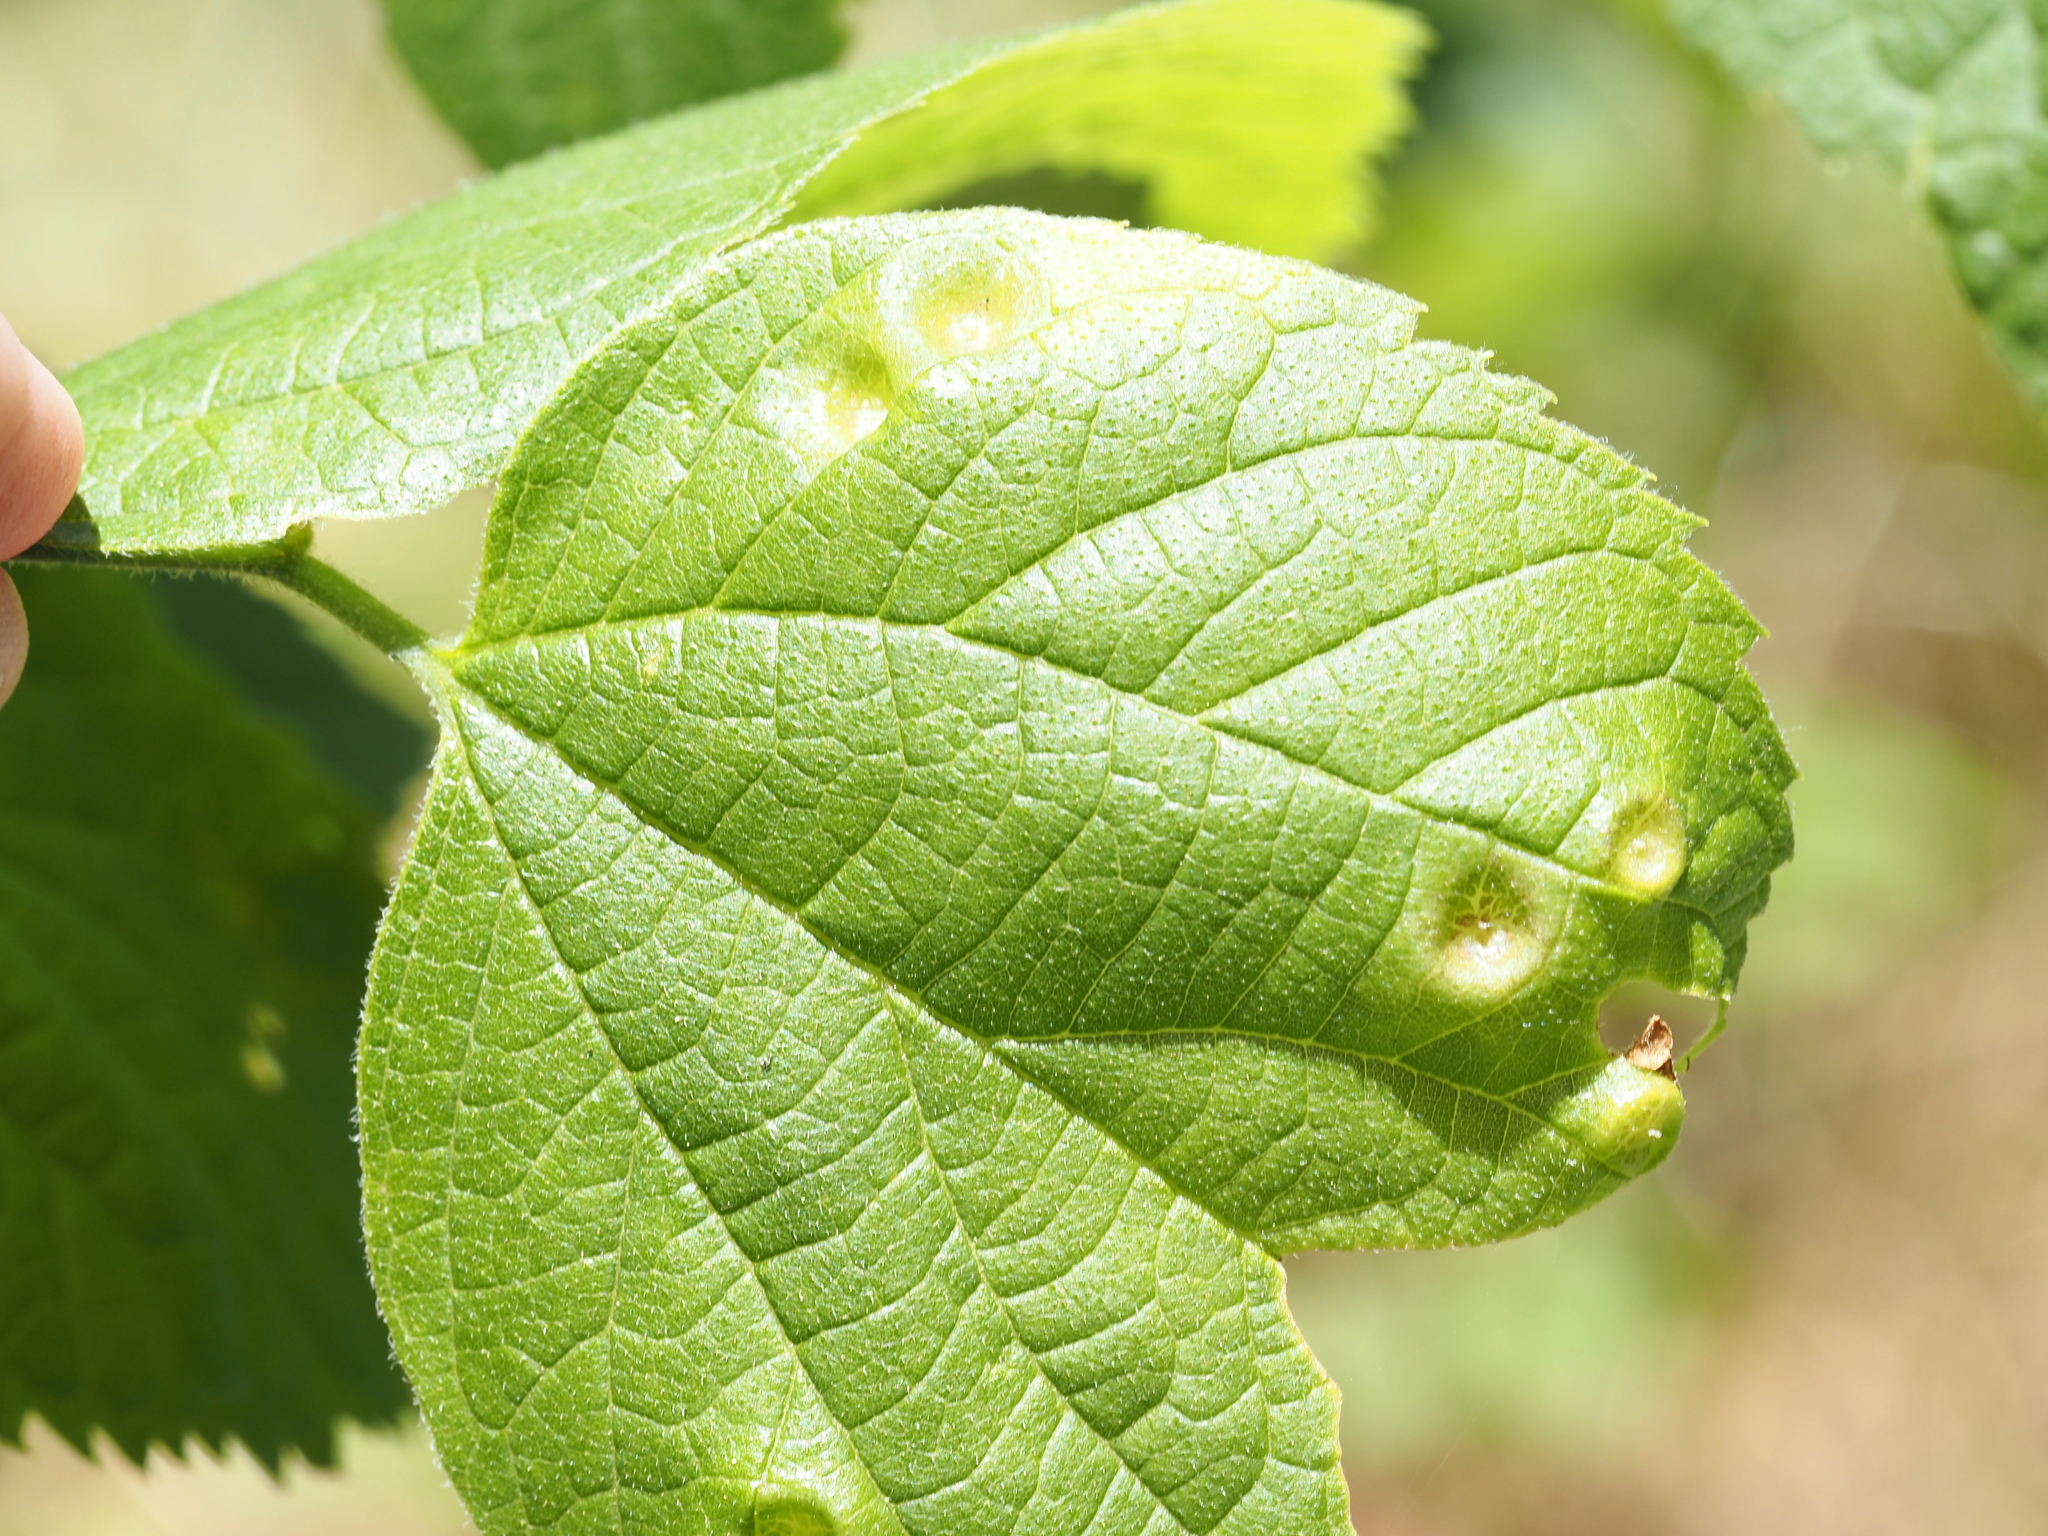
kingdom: Animalia
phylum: Arthropoda
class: Insecta
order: Hemiptera
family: Aphalaridae
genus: Pachypsylla
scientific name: Pachypsylla celtidismamma
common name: Hackberry nipplegall psyllid
